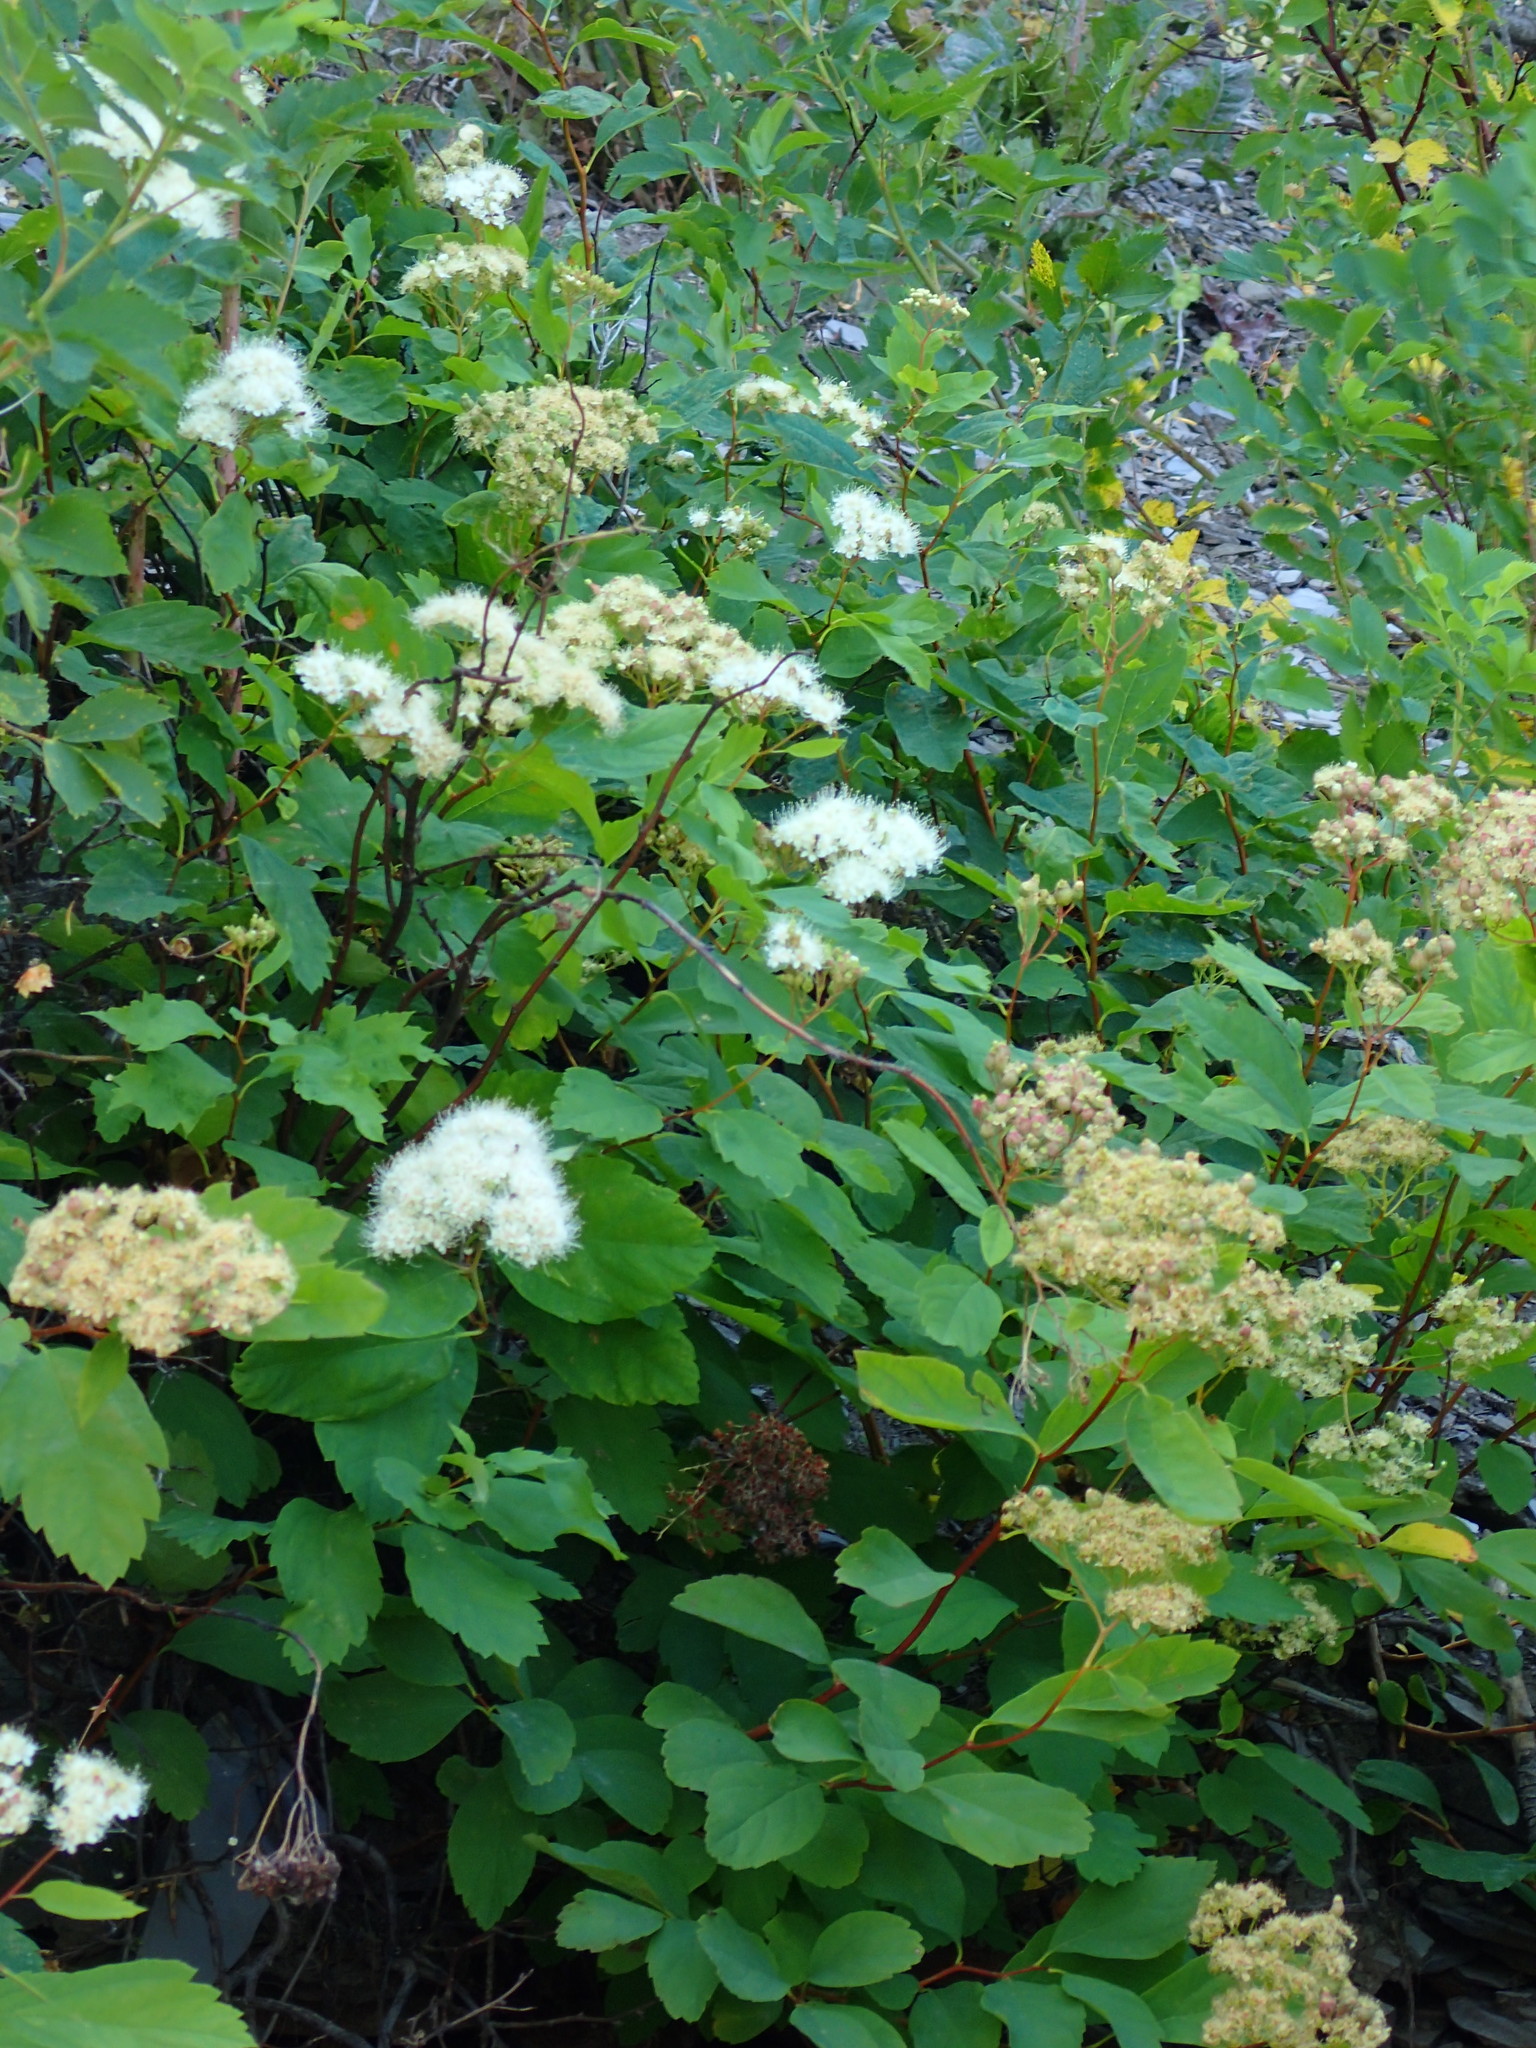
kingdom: Plantae
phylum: Tracheophyta
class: Magnoliopsida
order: Rosales
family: Rosaceae
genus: Spiraea
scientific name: Spiraea lucida
